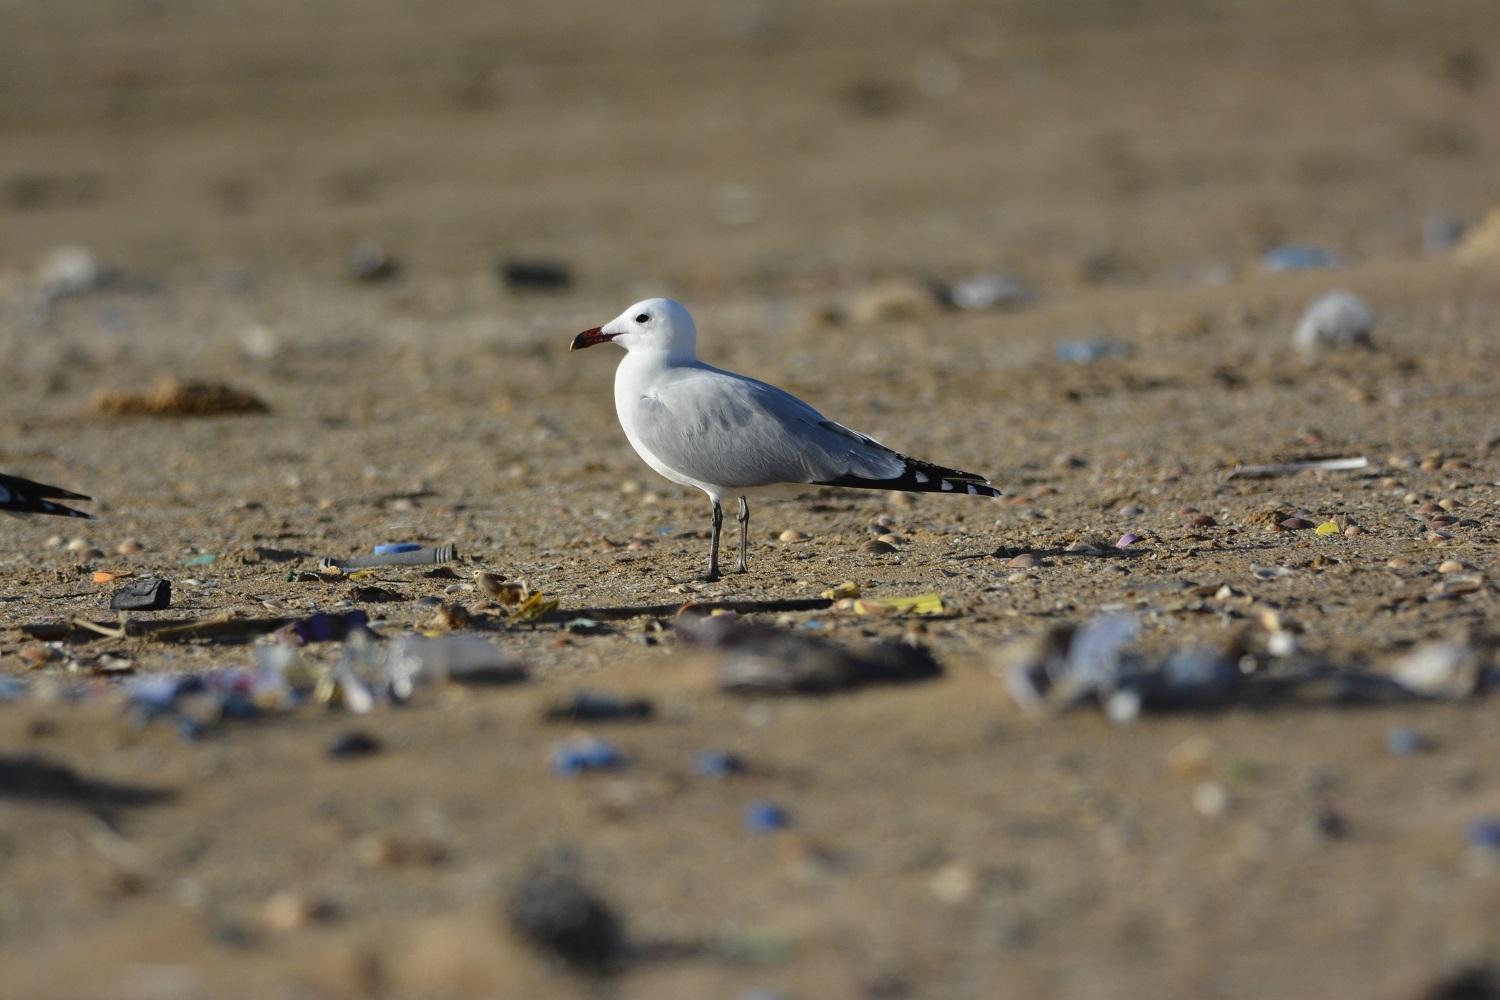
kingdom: Animalia
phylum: Chordata
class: Aves
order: Charadriiformes
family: Laridae
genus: Ichthyaetus
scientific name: Ichthyaetus audouinii
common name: Audouin's gull
